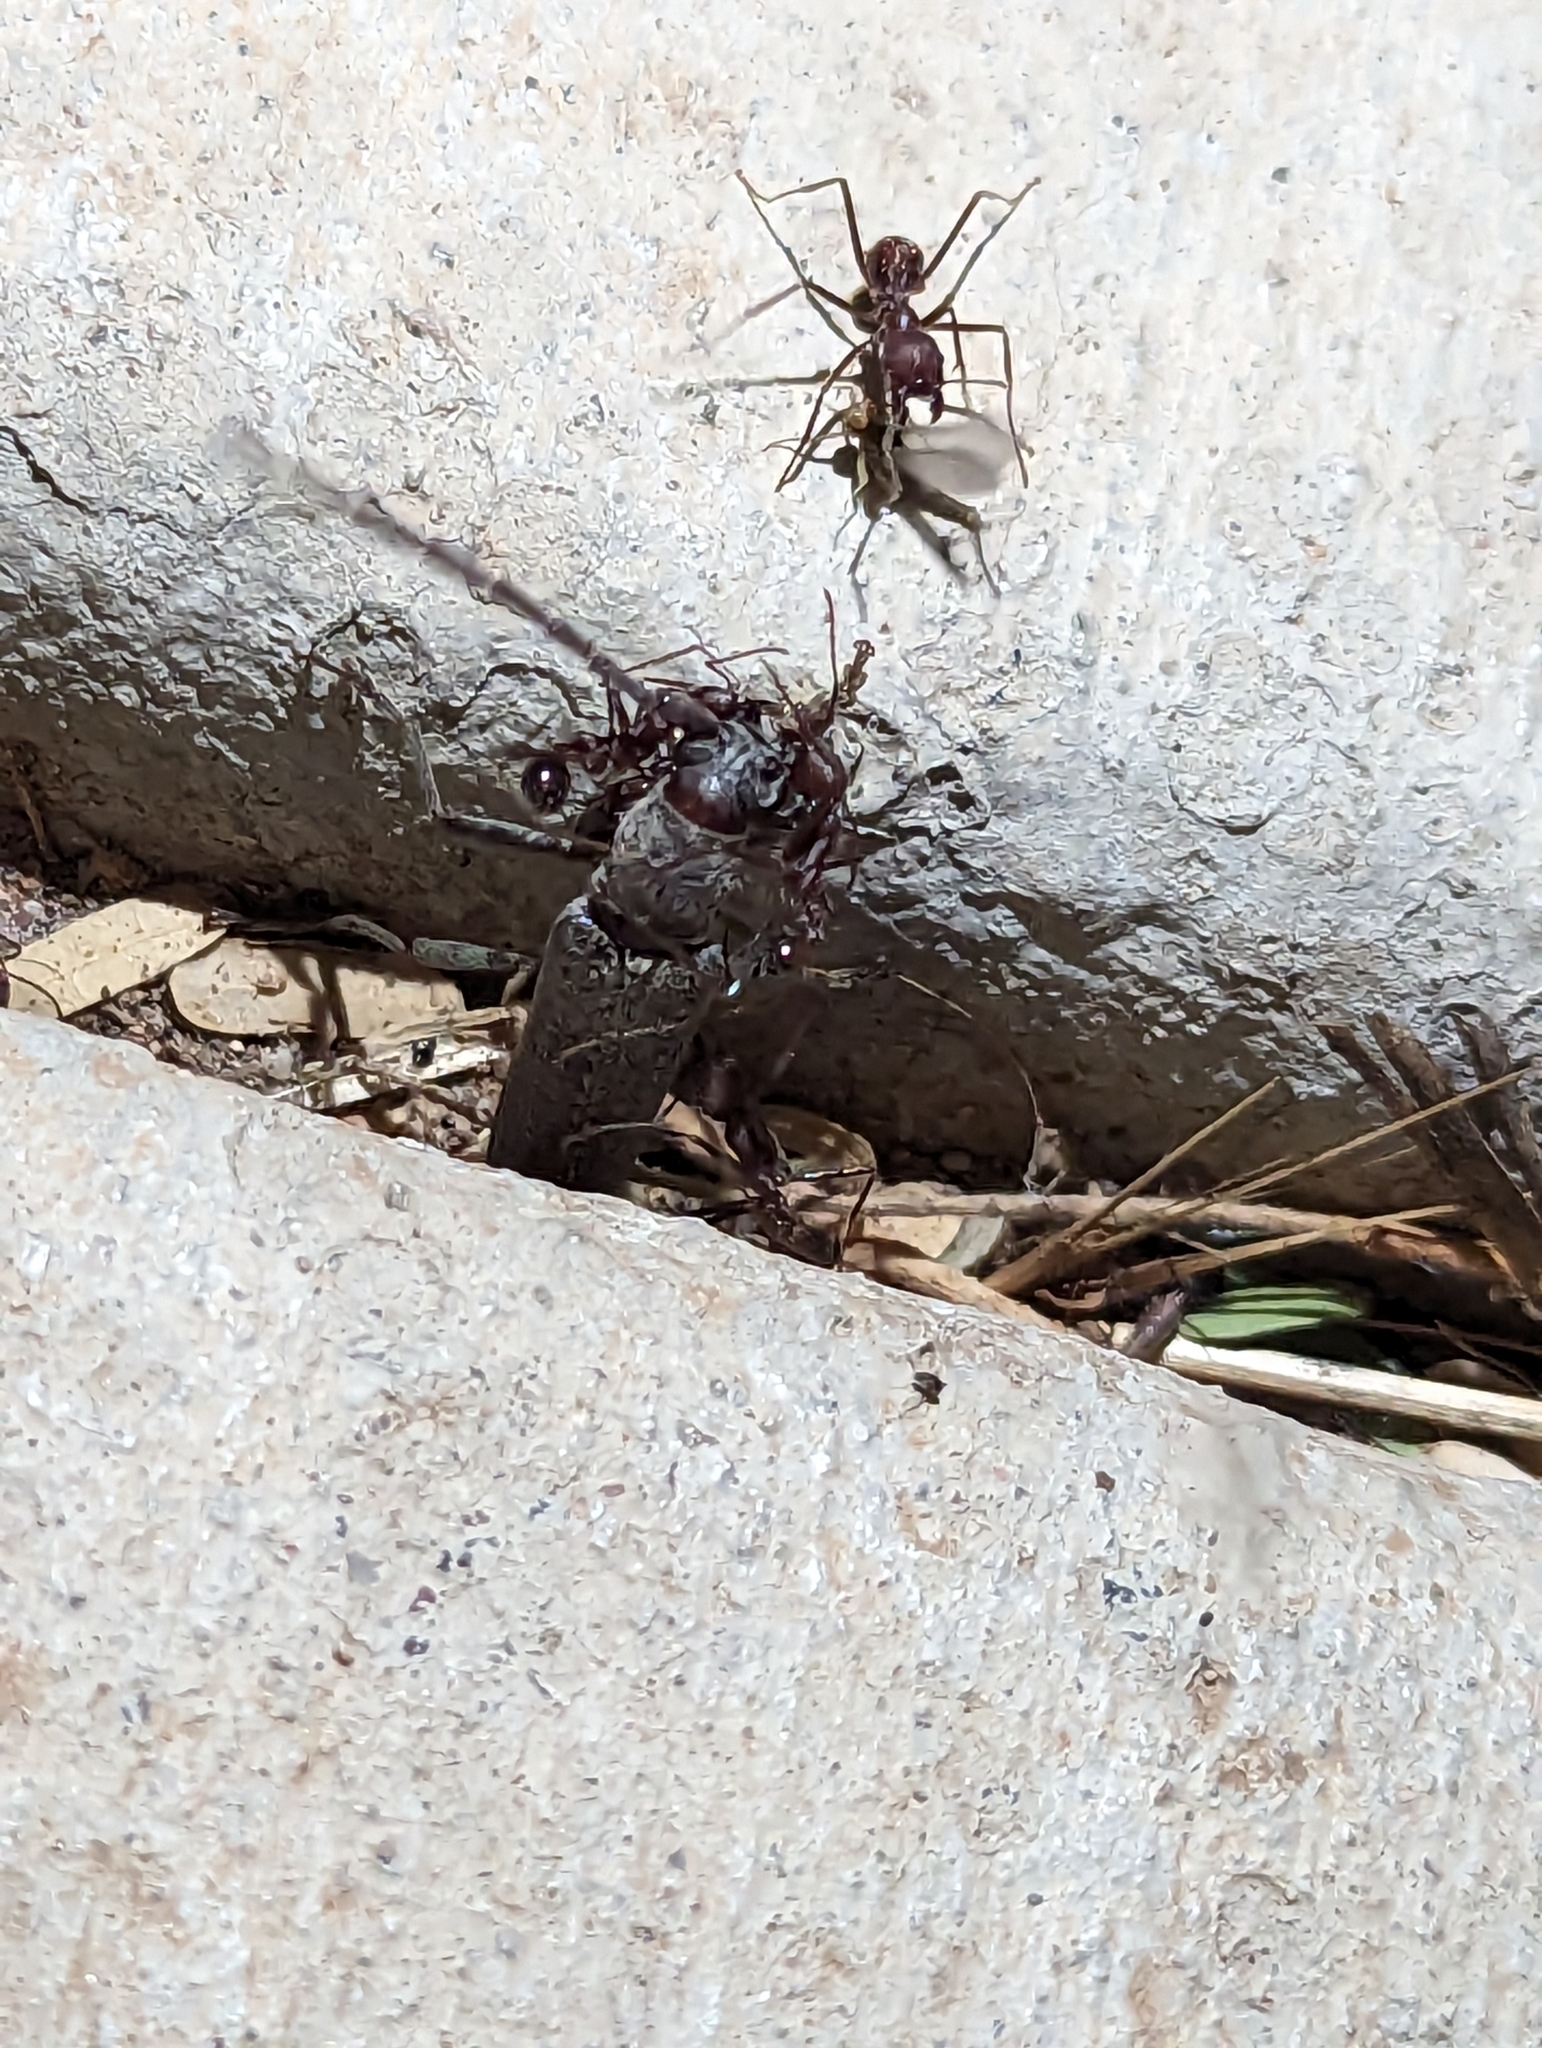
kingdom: Animalia
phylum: Arthropoda
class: Insecta
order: Hymenoptera
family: Formicidae
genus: Novomessor
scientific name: Novomessor albisetosa
